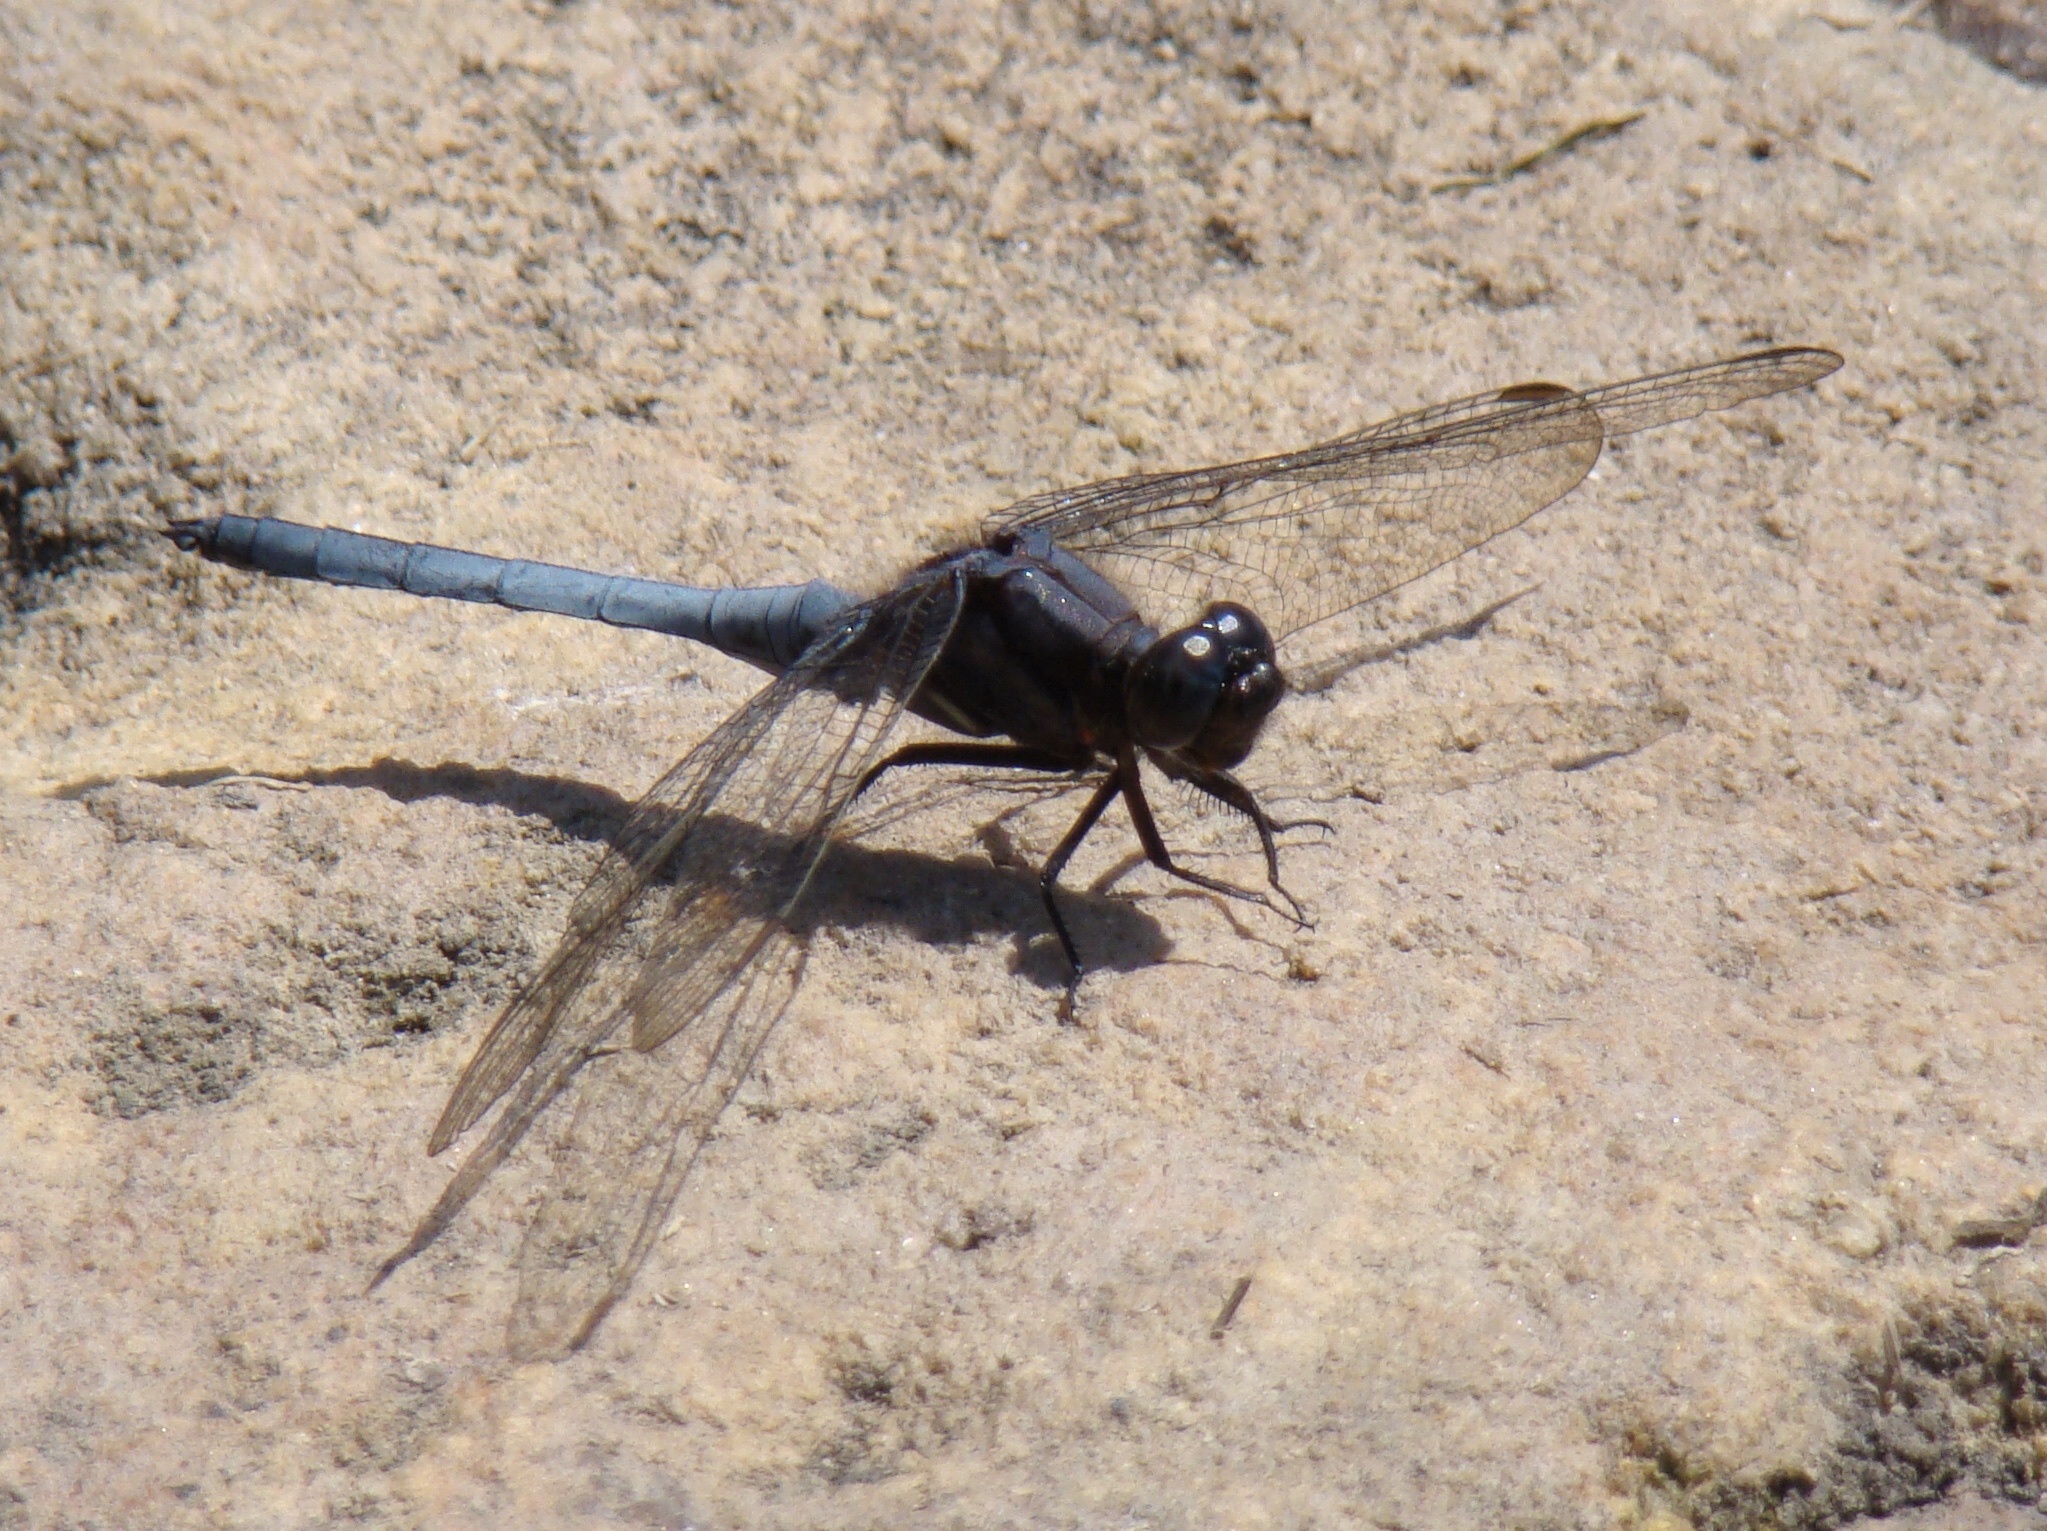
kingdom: Animalia
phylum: Arthropoda
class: Insecta
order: Odonata
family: Libellulidae
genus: Orthetrum
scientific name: Orthetrum glaucum
